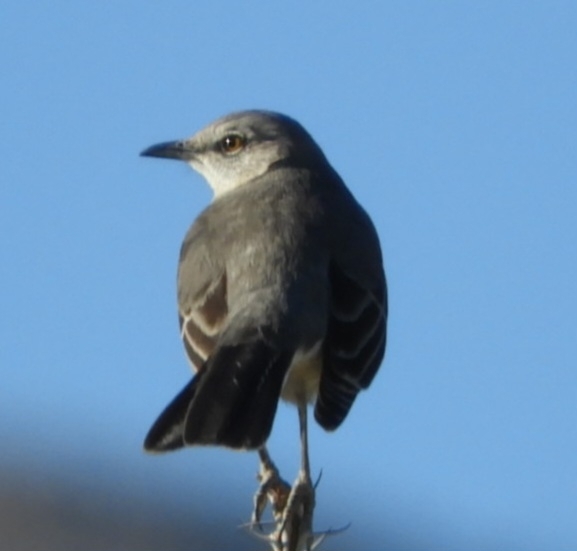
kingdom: Animalia
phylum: Chordata
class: Aves
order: Passeriformes
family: Mimidae
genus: Mimus
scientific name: Mimus polyglottos
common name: Northern mockingbird
